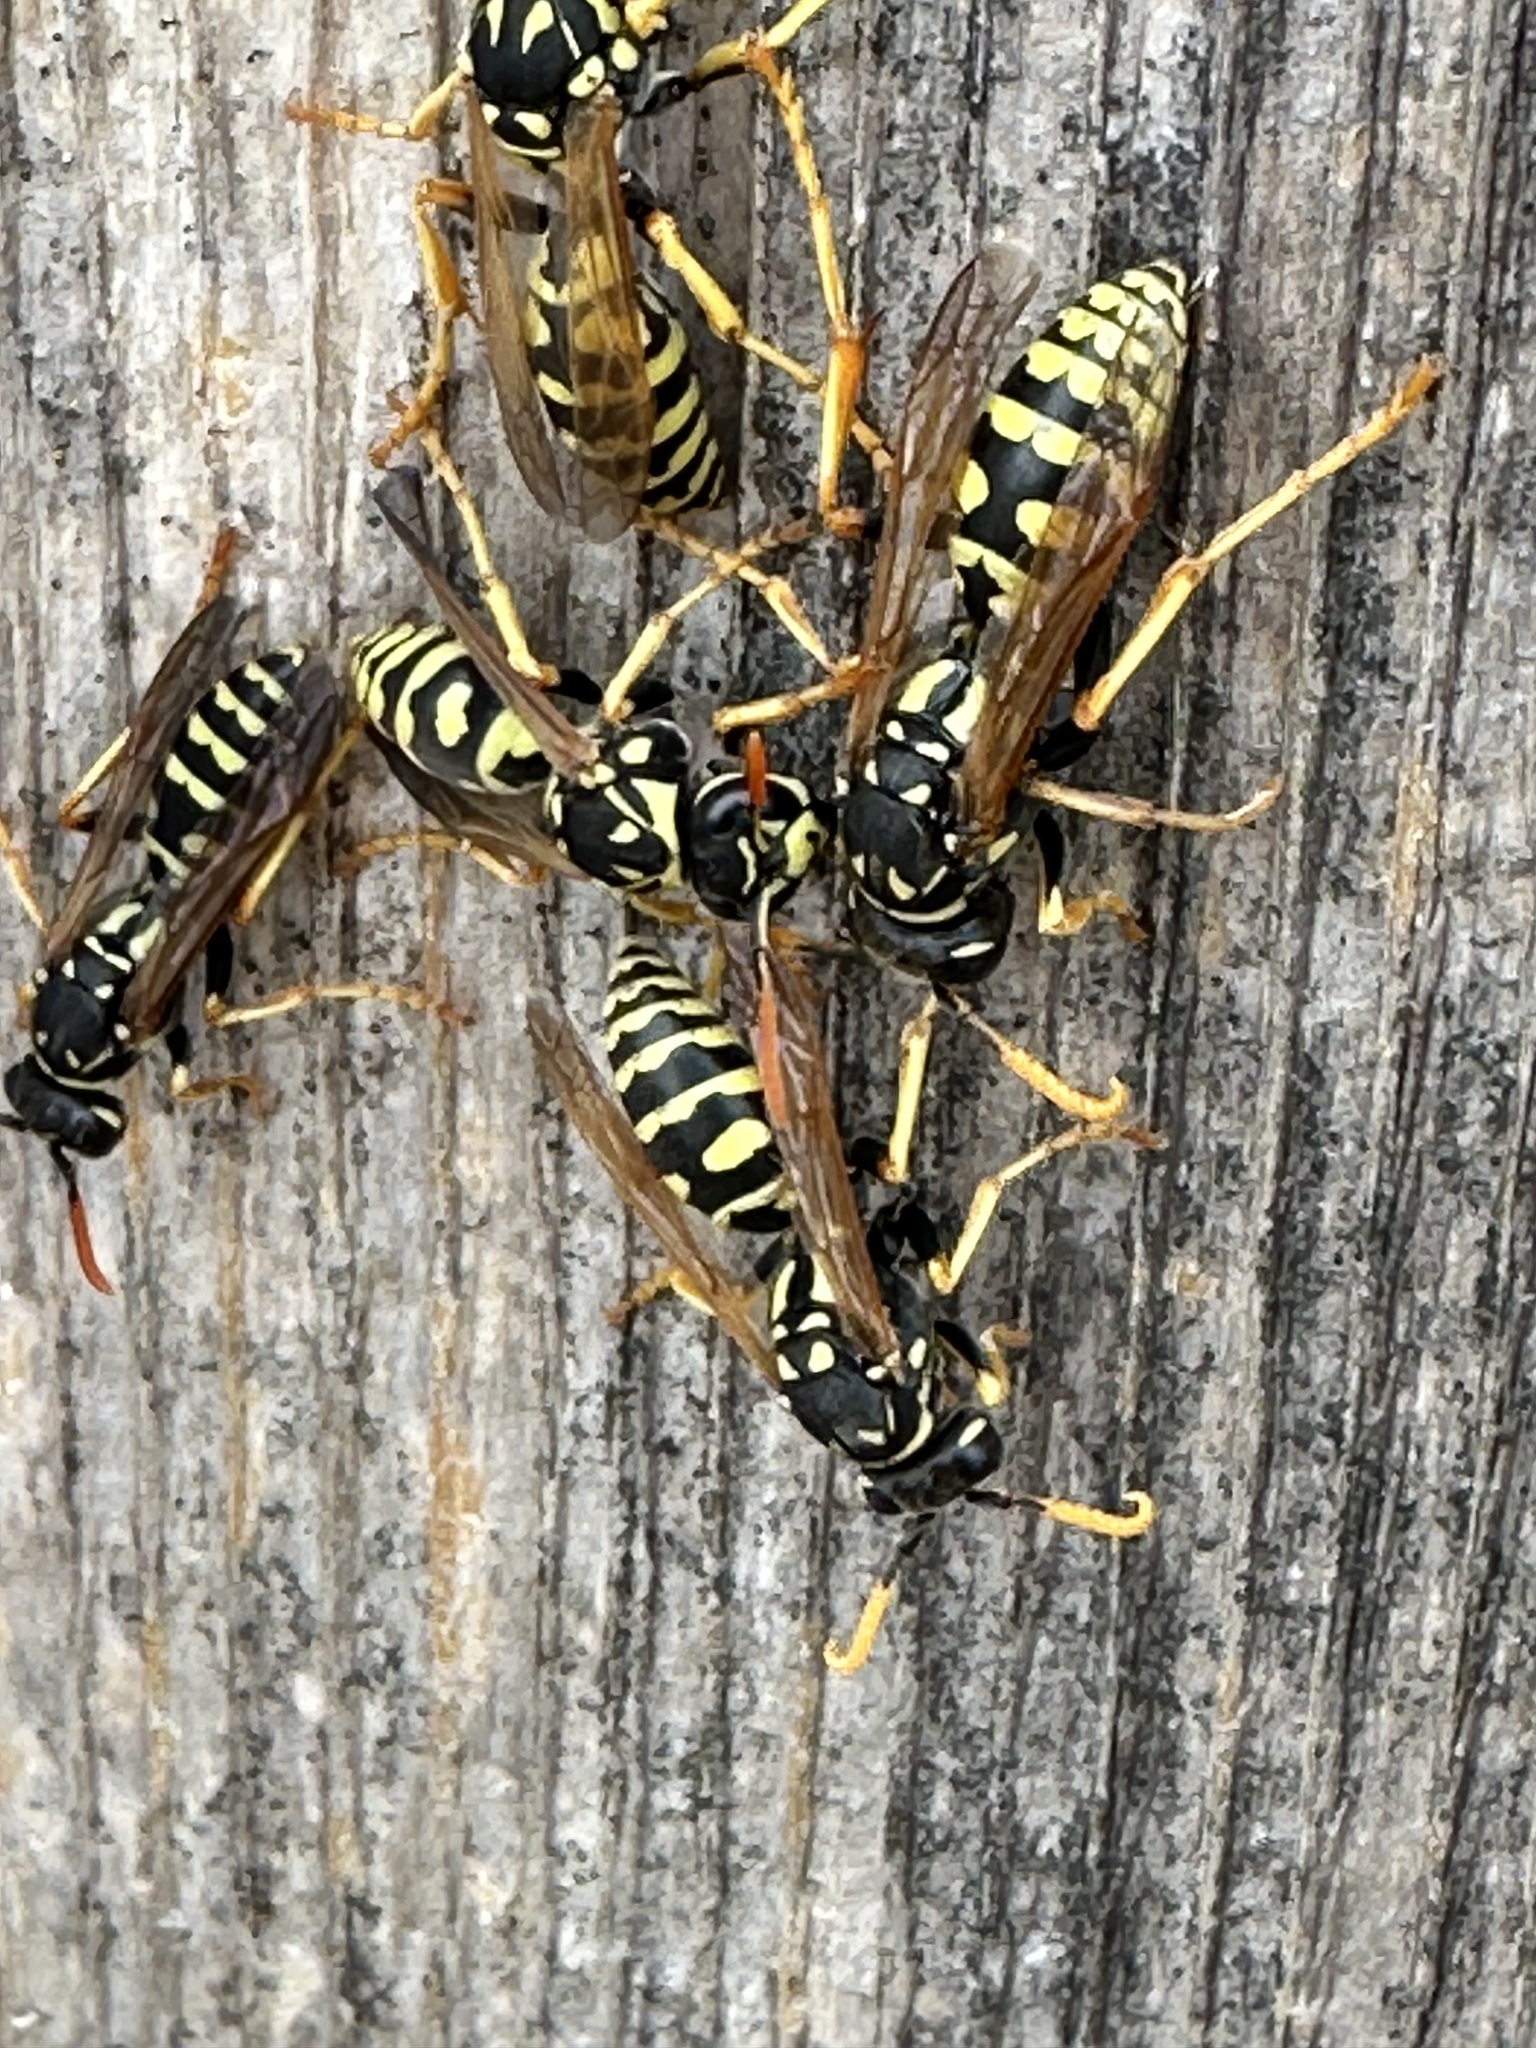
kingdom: Animalia
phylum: Arthropoda
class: Insecta
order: Hymenoptera
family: Eumenidae
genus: Polistes
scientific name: Polistes dominula
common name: Paper wasp
